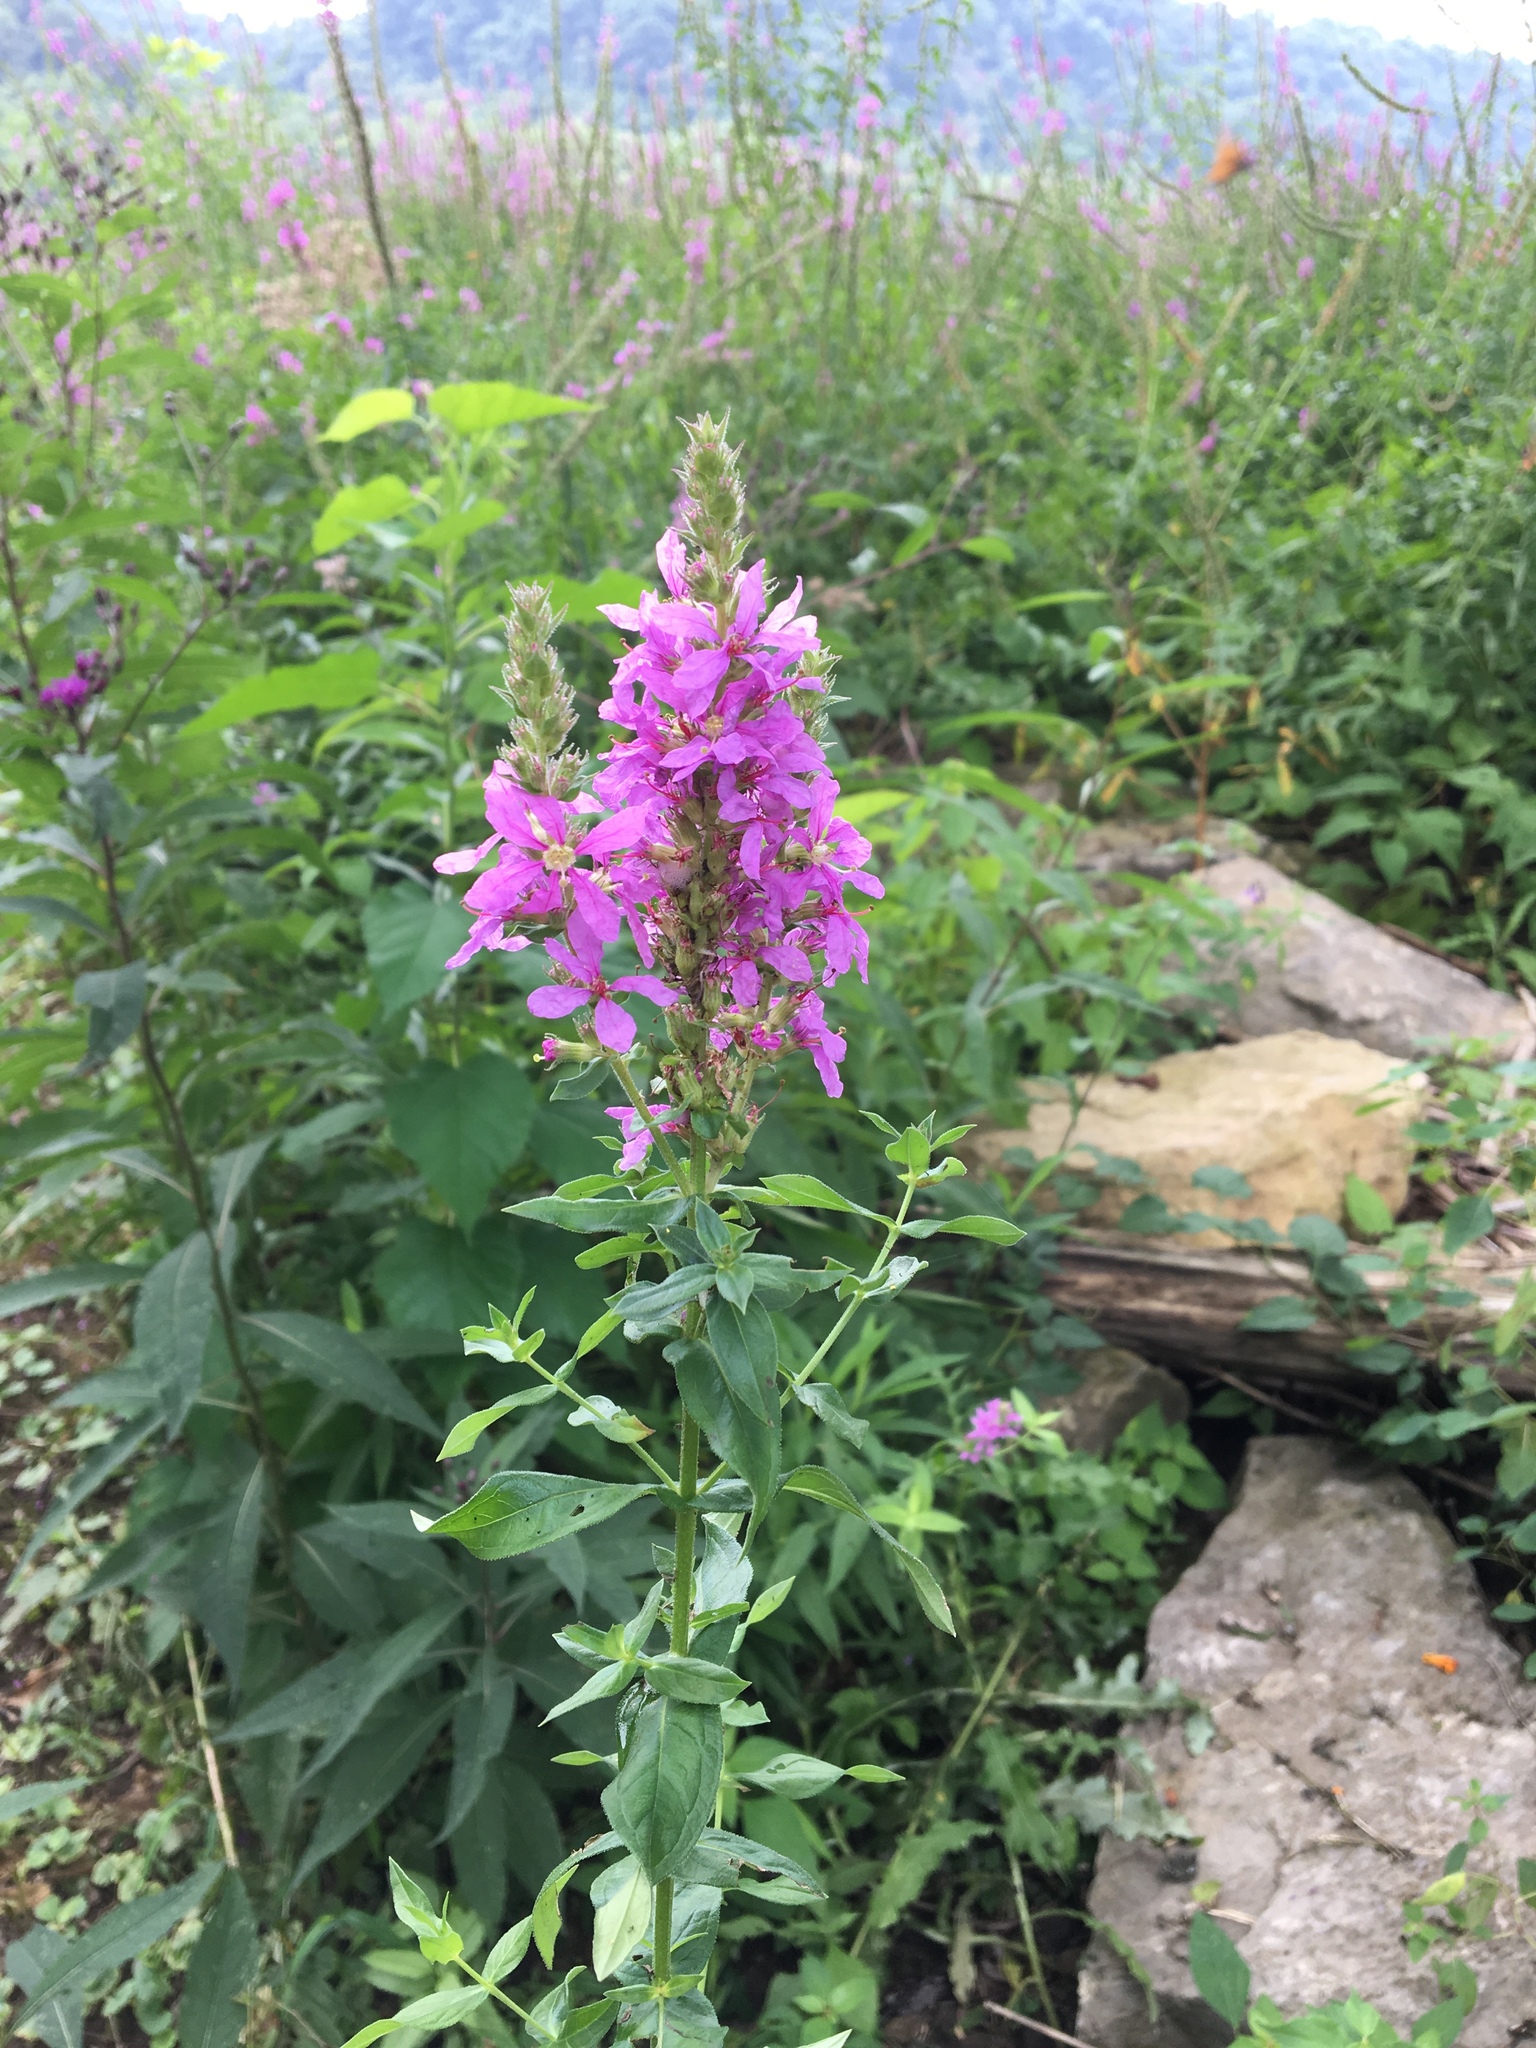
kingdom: Plantae
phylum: Tracheophyta
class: Magnoliopsida
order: Myrtales
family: Lythraceae
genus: Lythrum
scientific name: Lythrum salicaria
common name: Purple loosestrife
